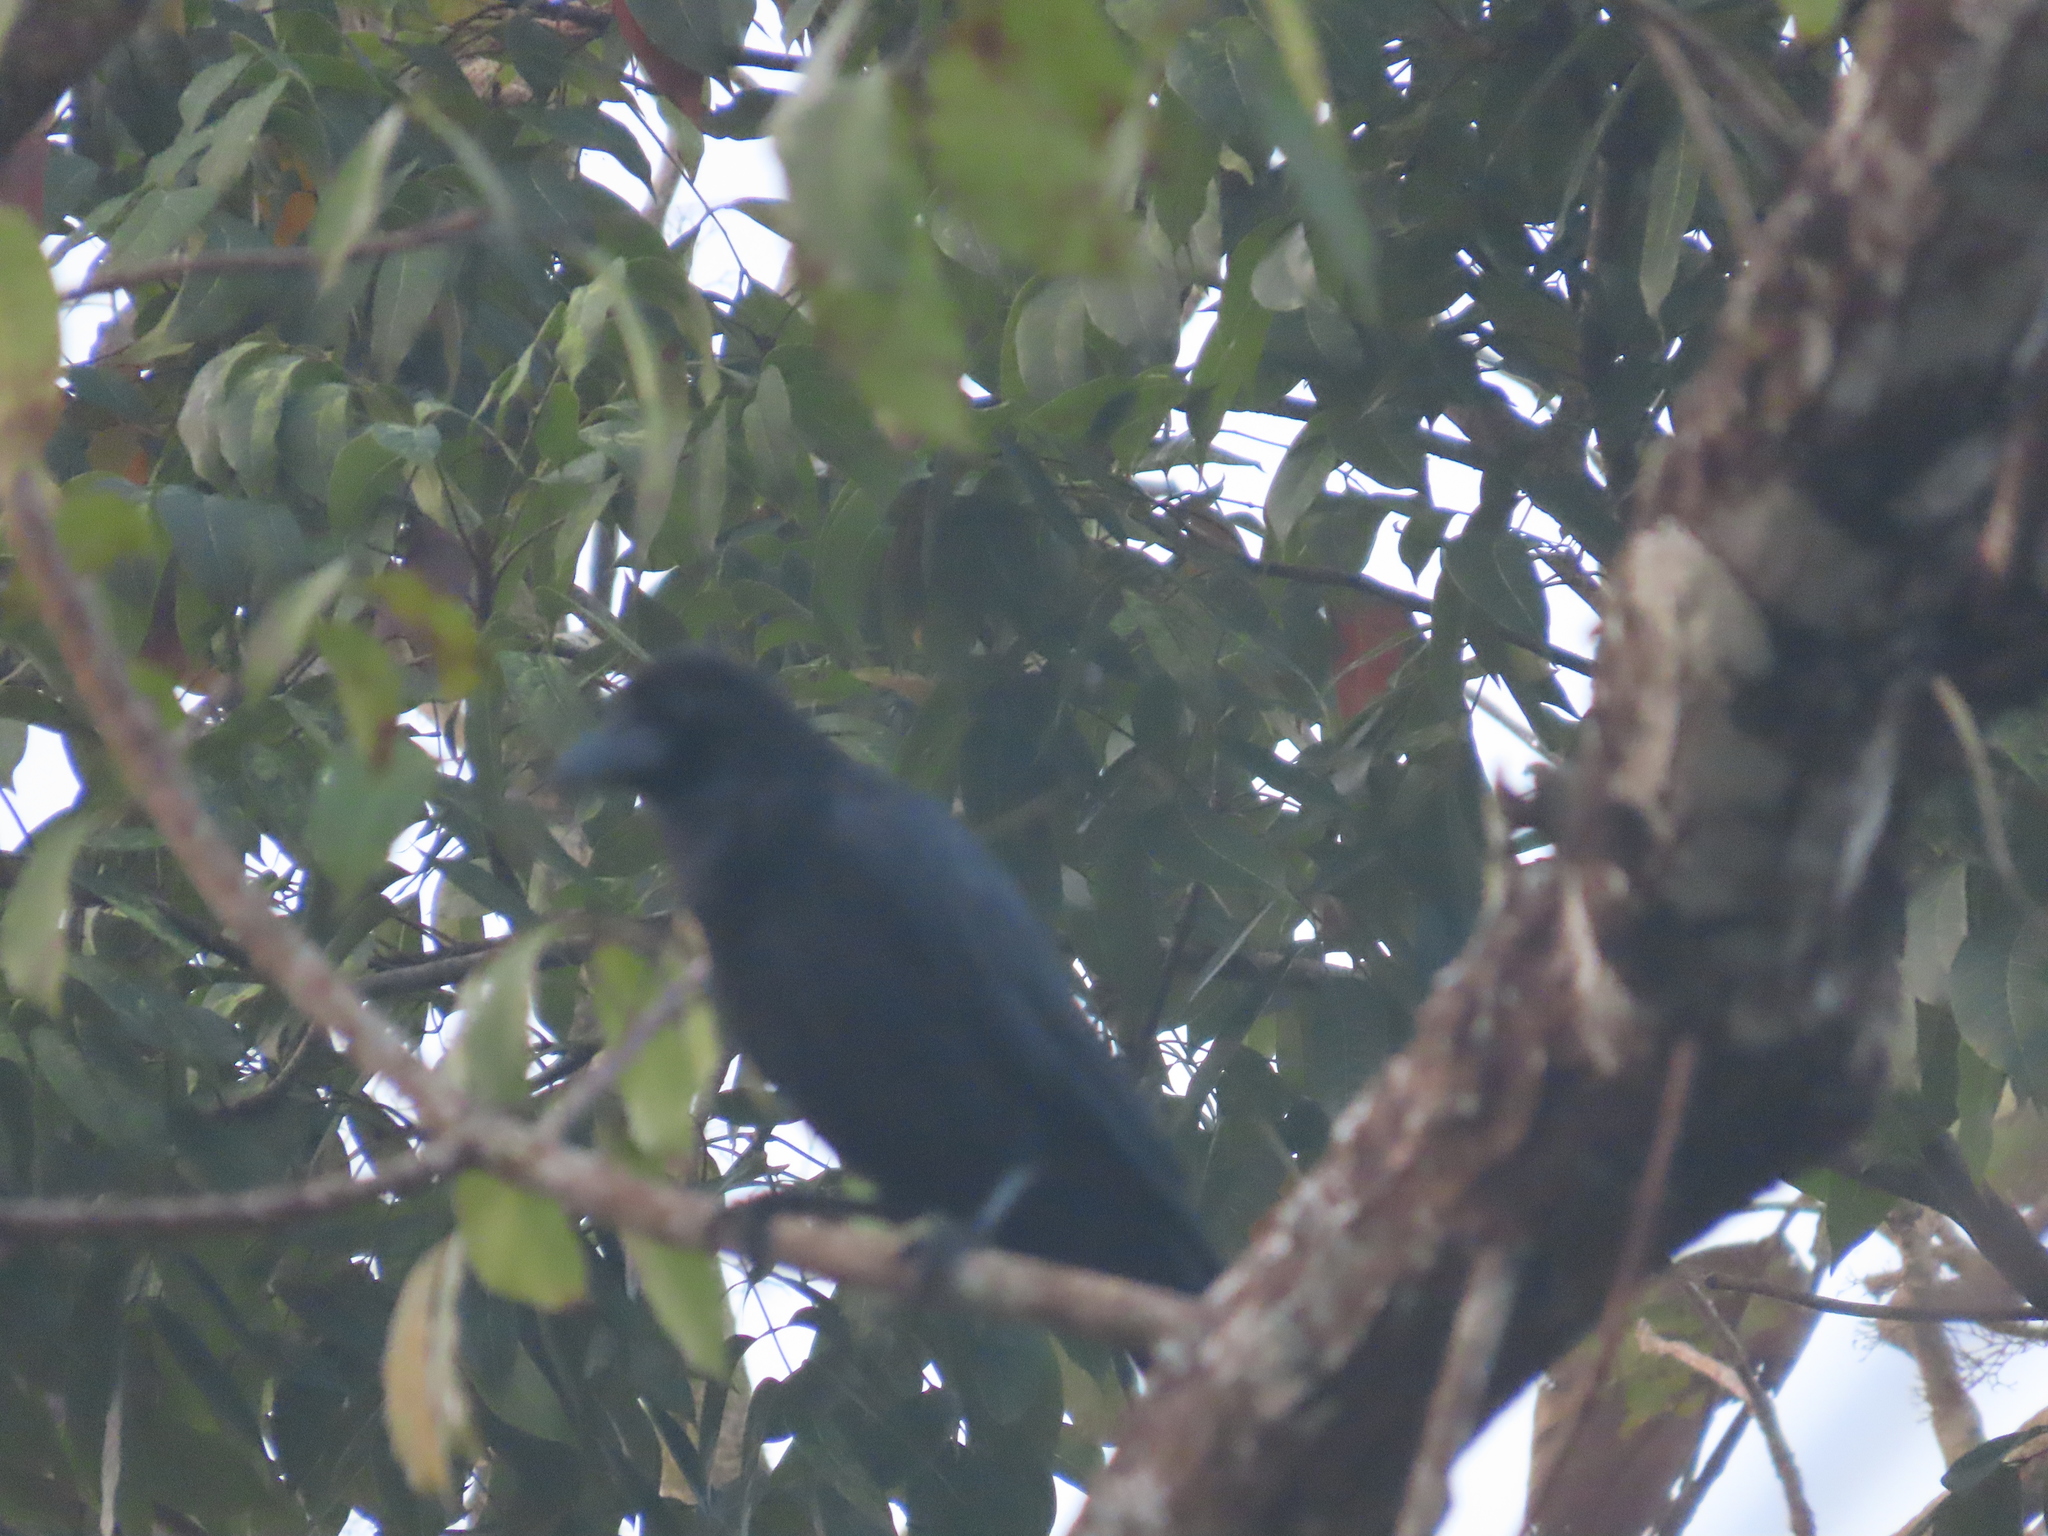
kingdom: Animalia
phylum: Chordata
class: Aves
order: Passeriformes
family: Corvidae
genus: Corvus
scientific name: Corvus macrorhynchos
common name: Large-billed crow
